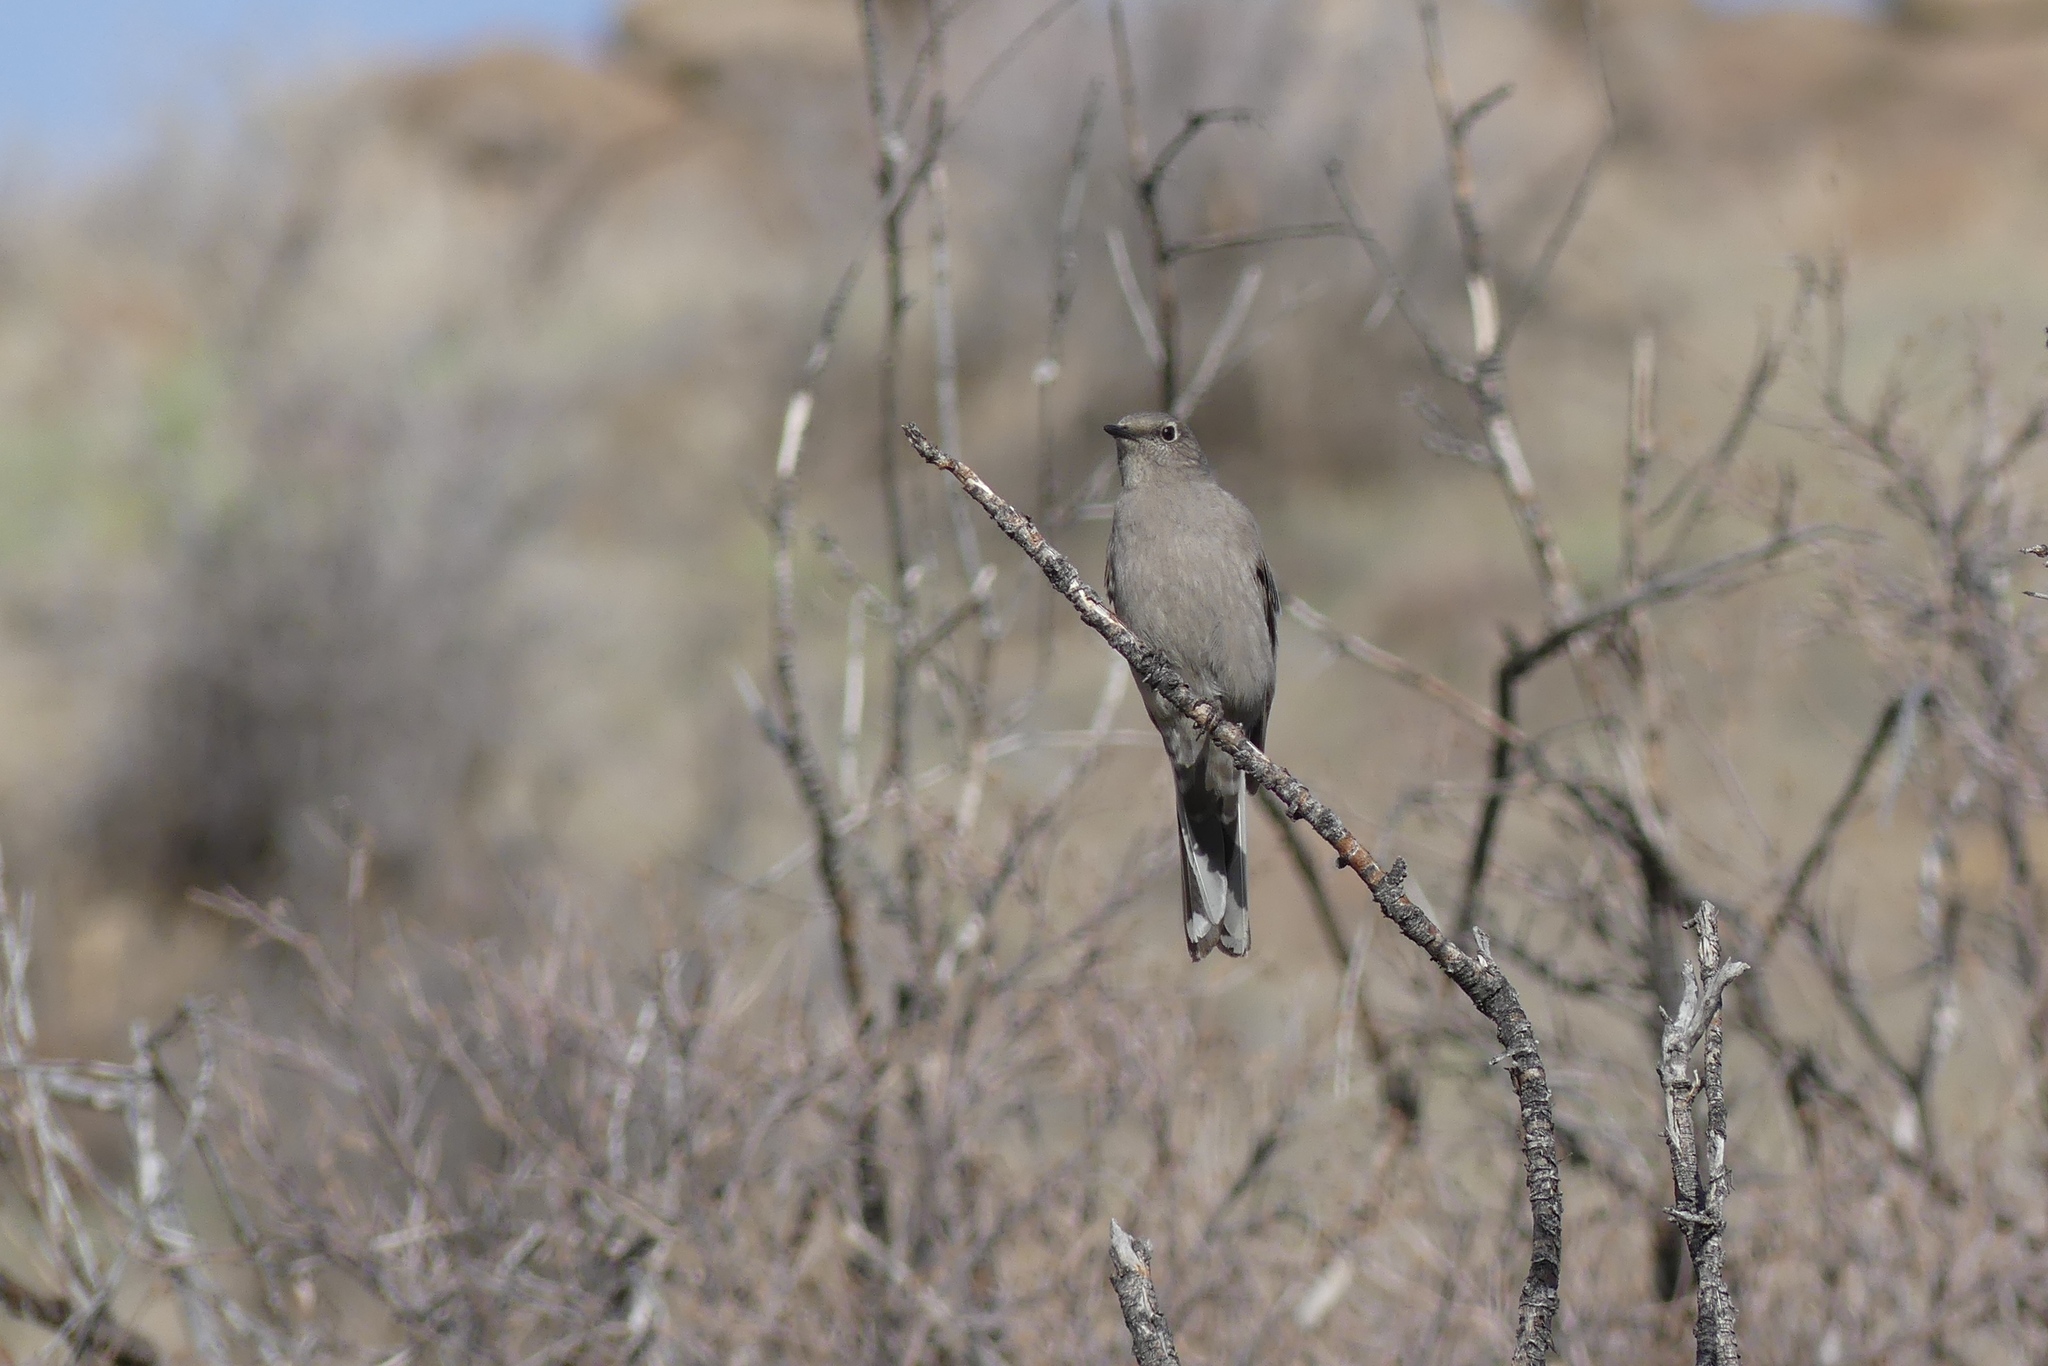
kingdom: Animalia
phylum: Chordata
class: Aves
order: Passeriformes
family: Turdidae
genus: Myadestes
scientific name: Myadestes townsendi
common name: Townsend's solitaire
